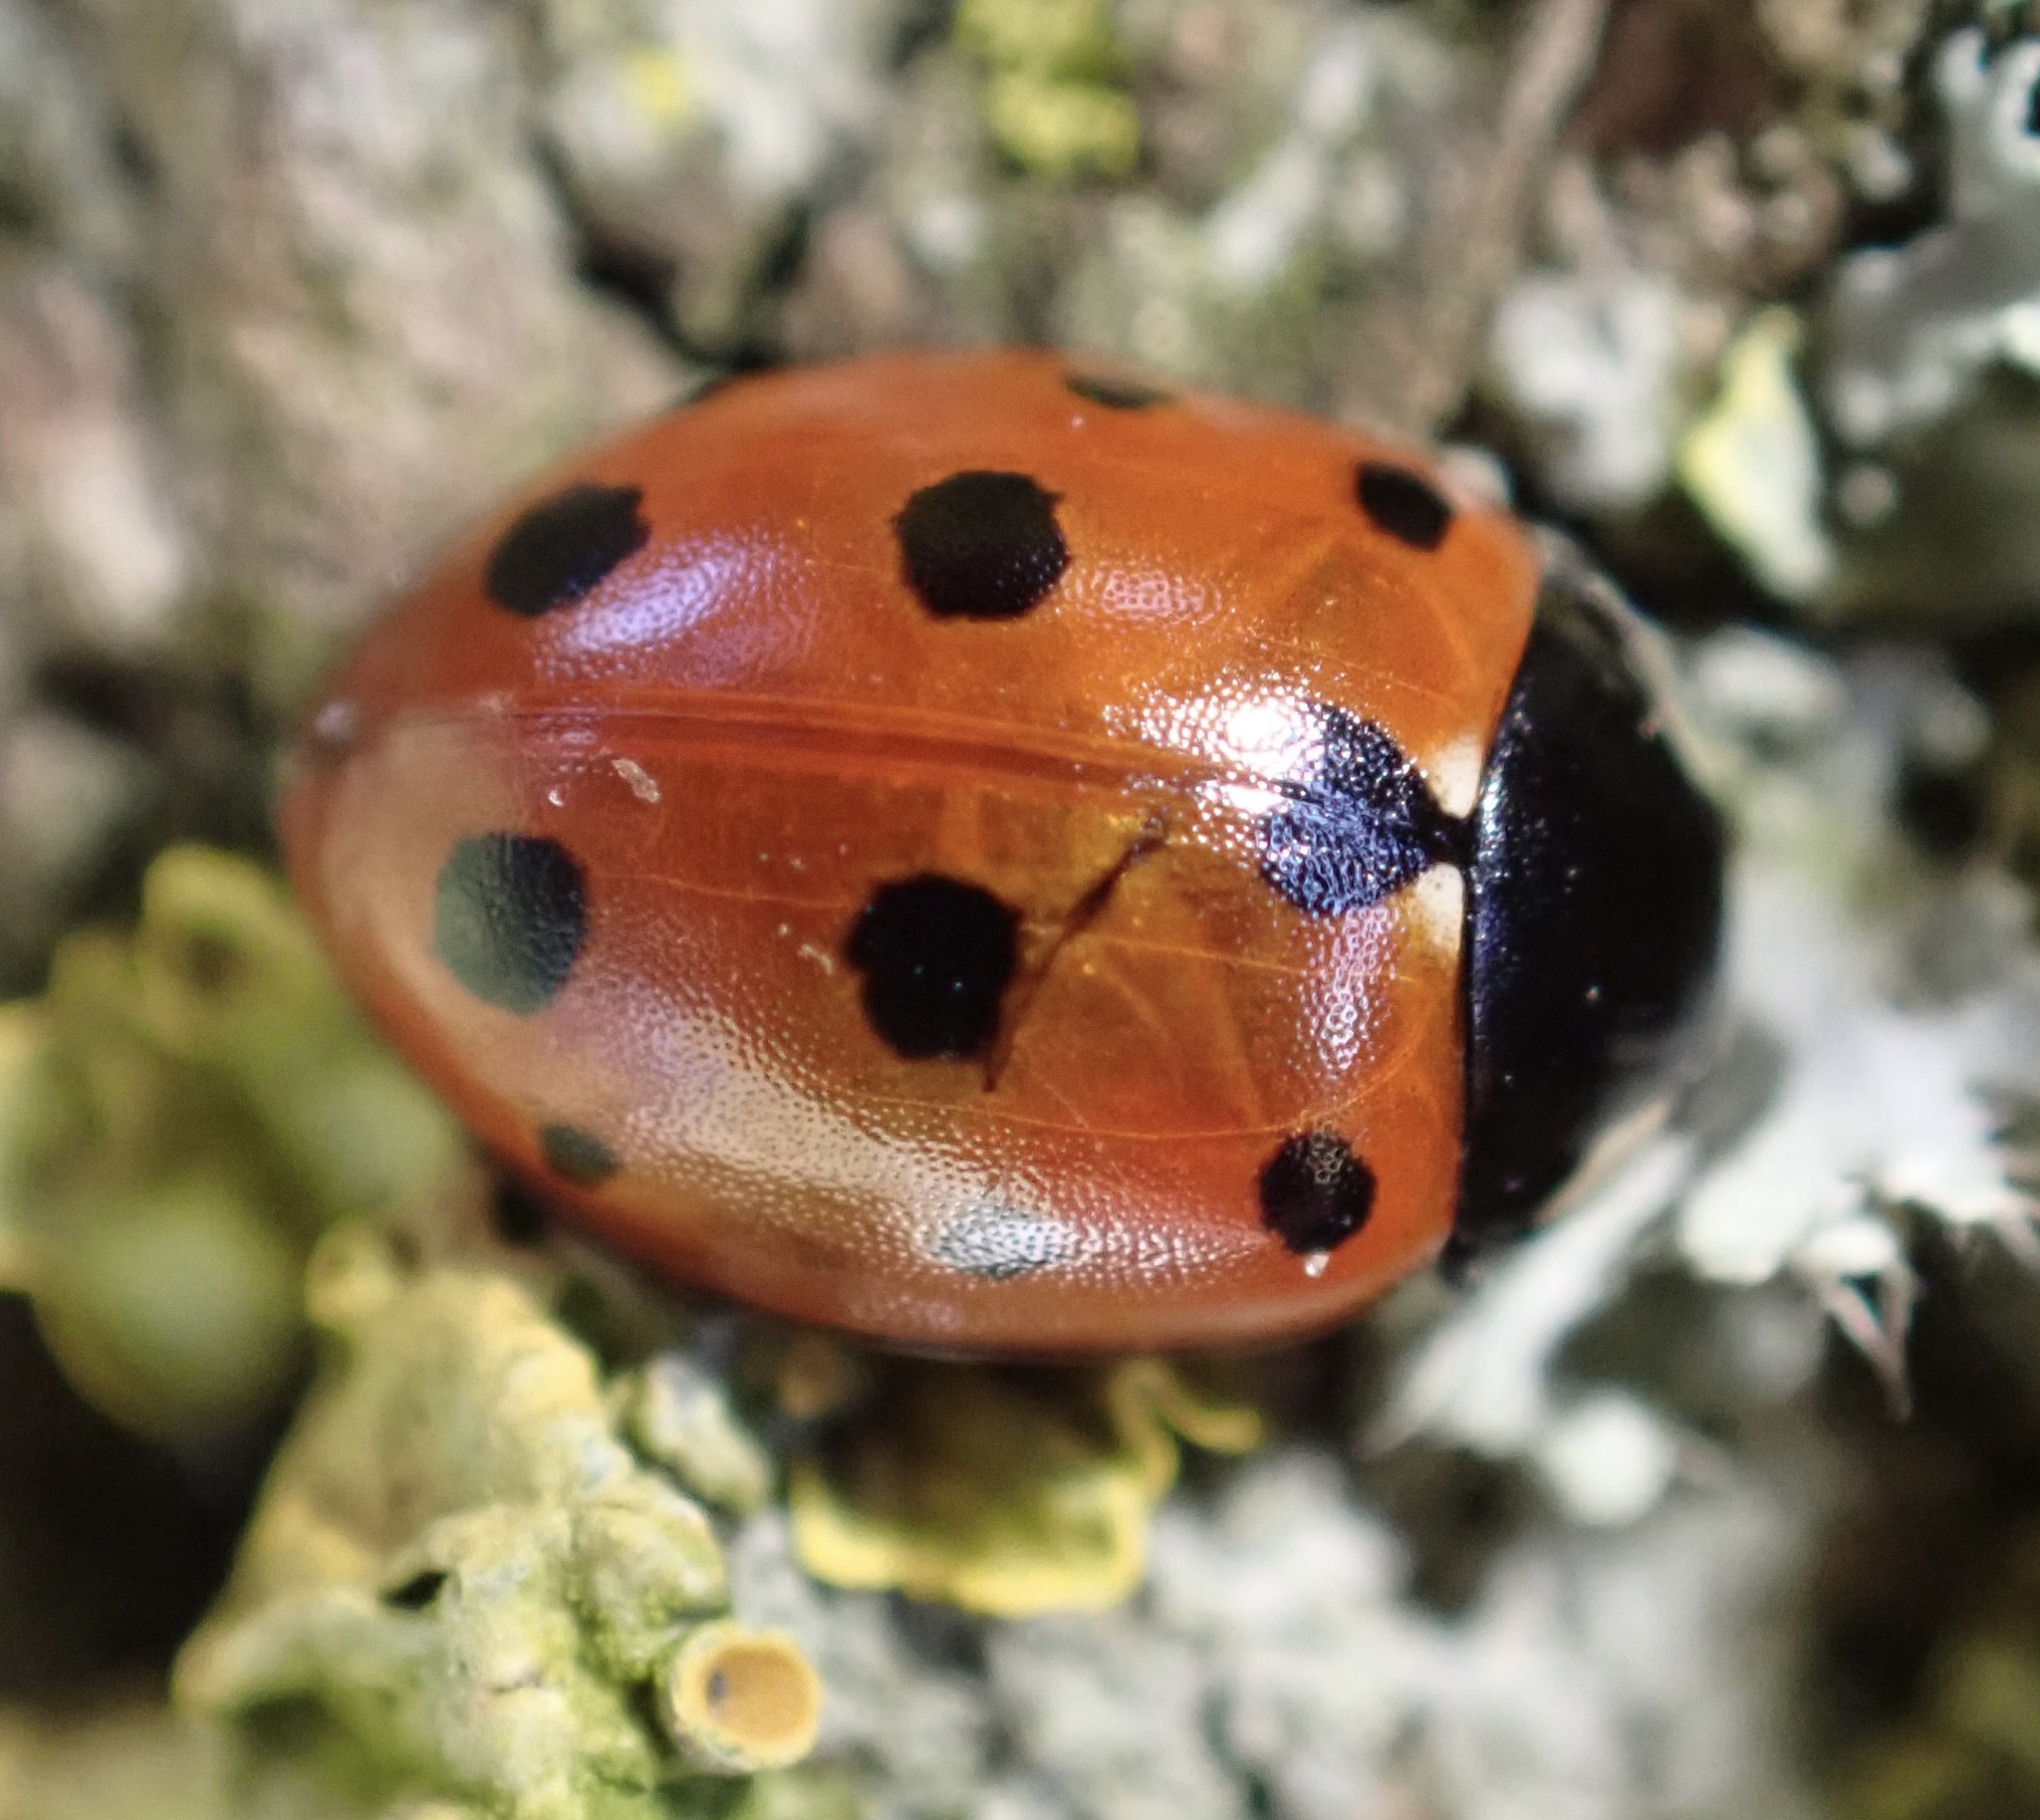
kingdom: Animalia
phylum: Arthropoda
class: Insecta
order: Coleoptera
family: Coccinellidae
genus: Coccinella
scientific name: Coccinella undecimpunctata
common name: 11-spot ladybird
